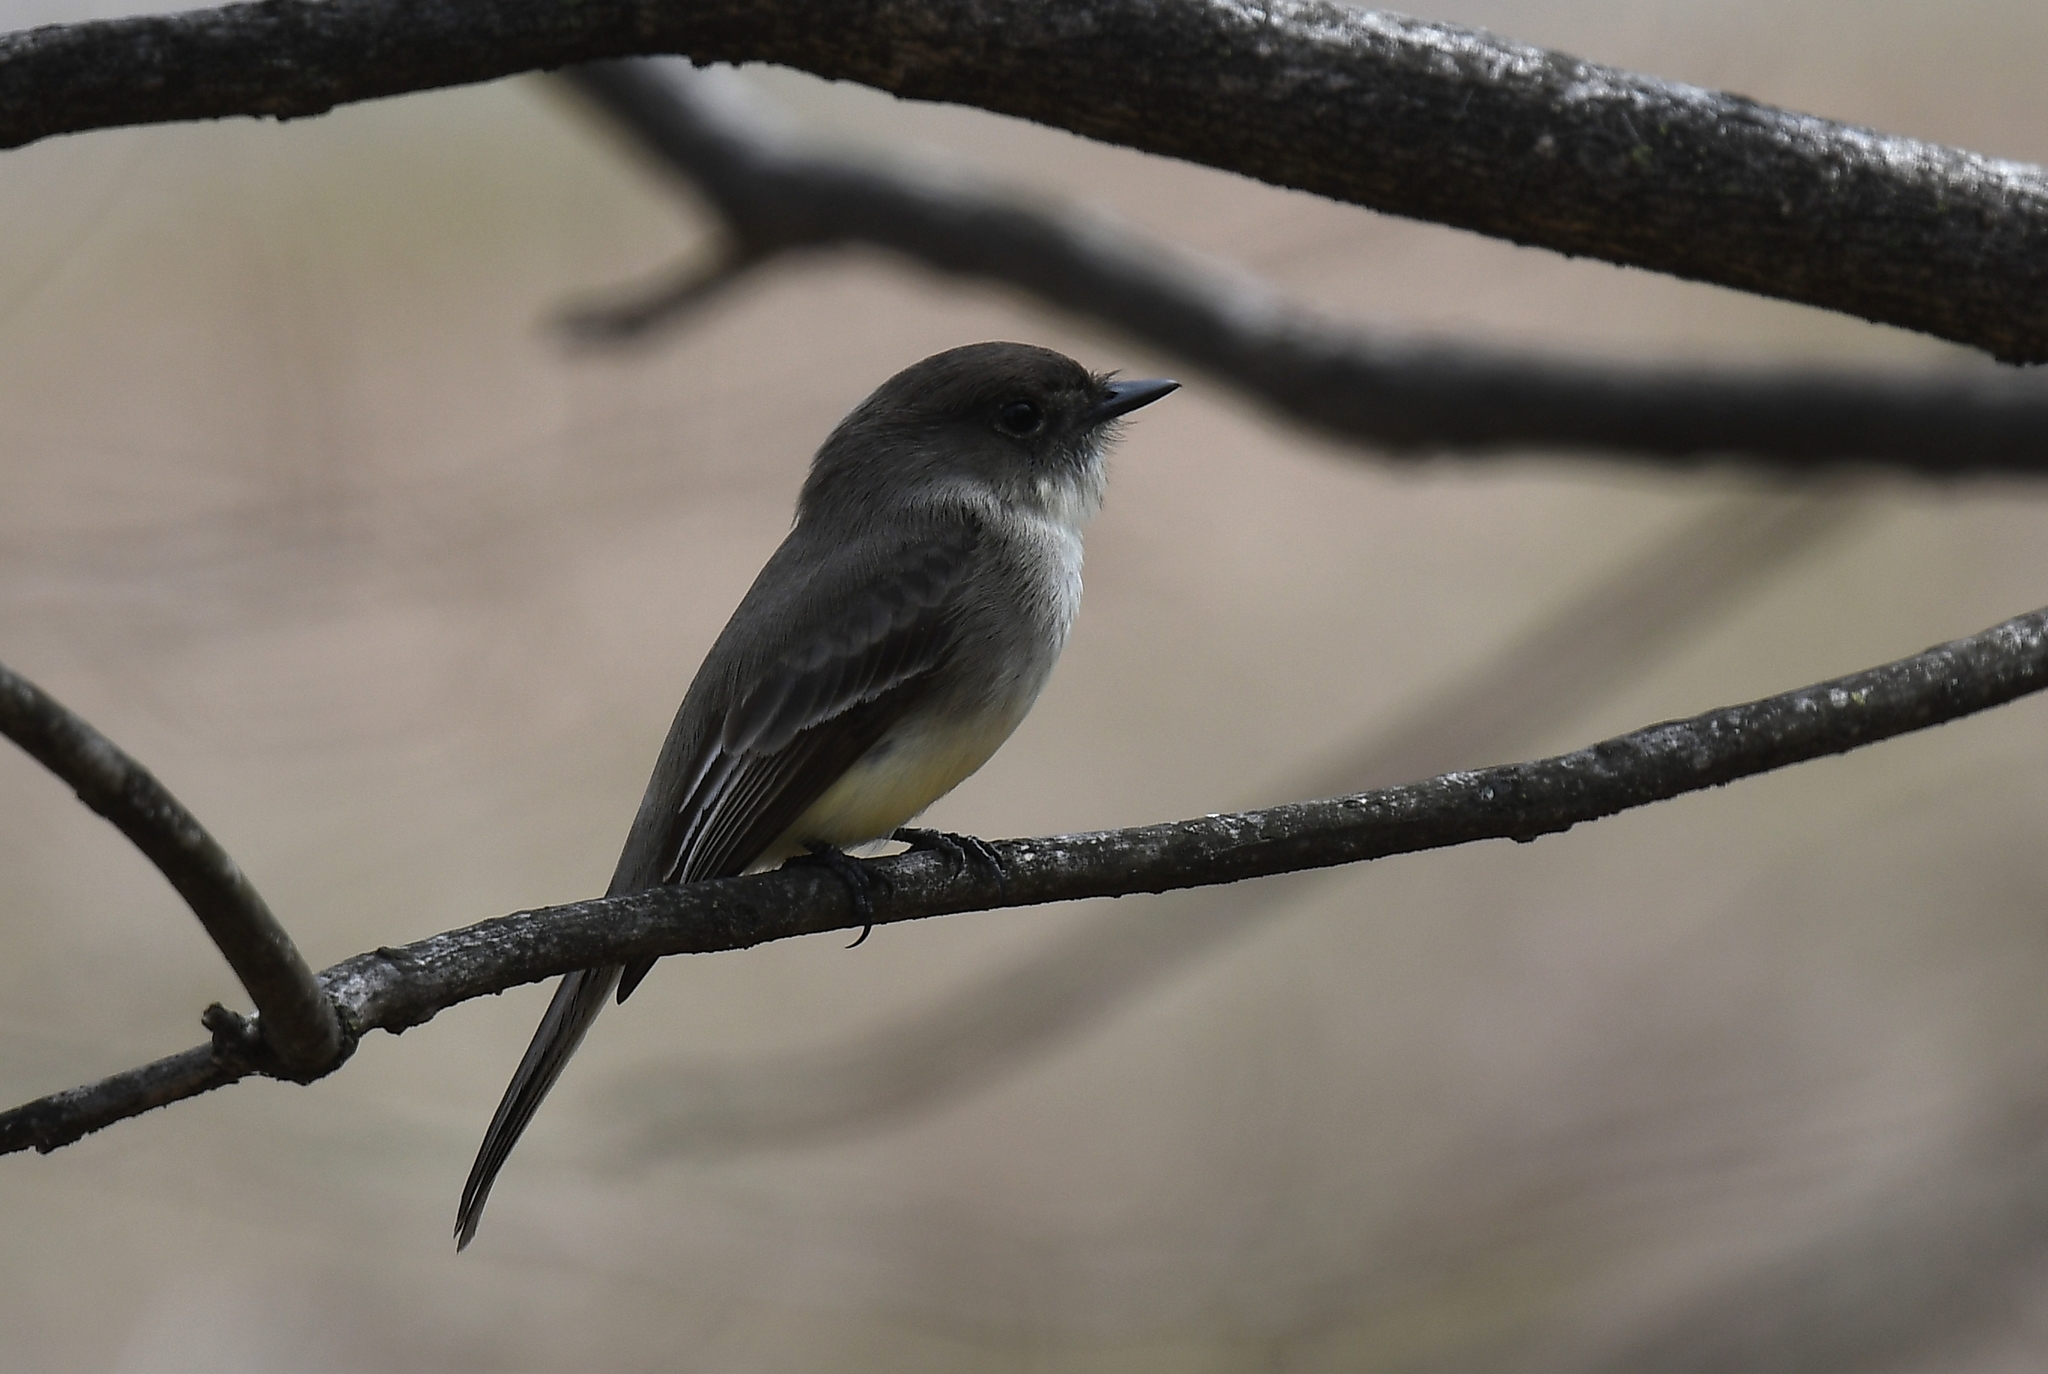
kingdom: Animalia
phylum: Chordata
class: Aves
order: Passeriformes
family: Tyrannidae
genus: Sayornis
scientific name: Sayornis phoebe
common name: Eastern phoebe
